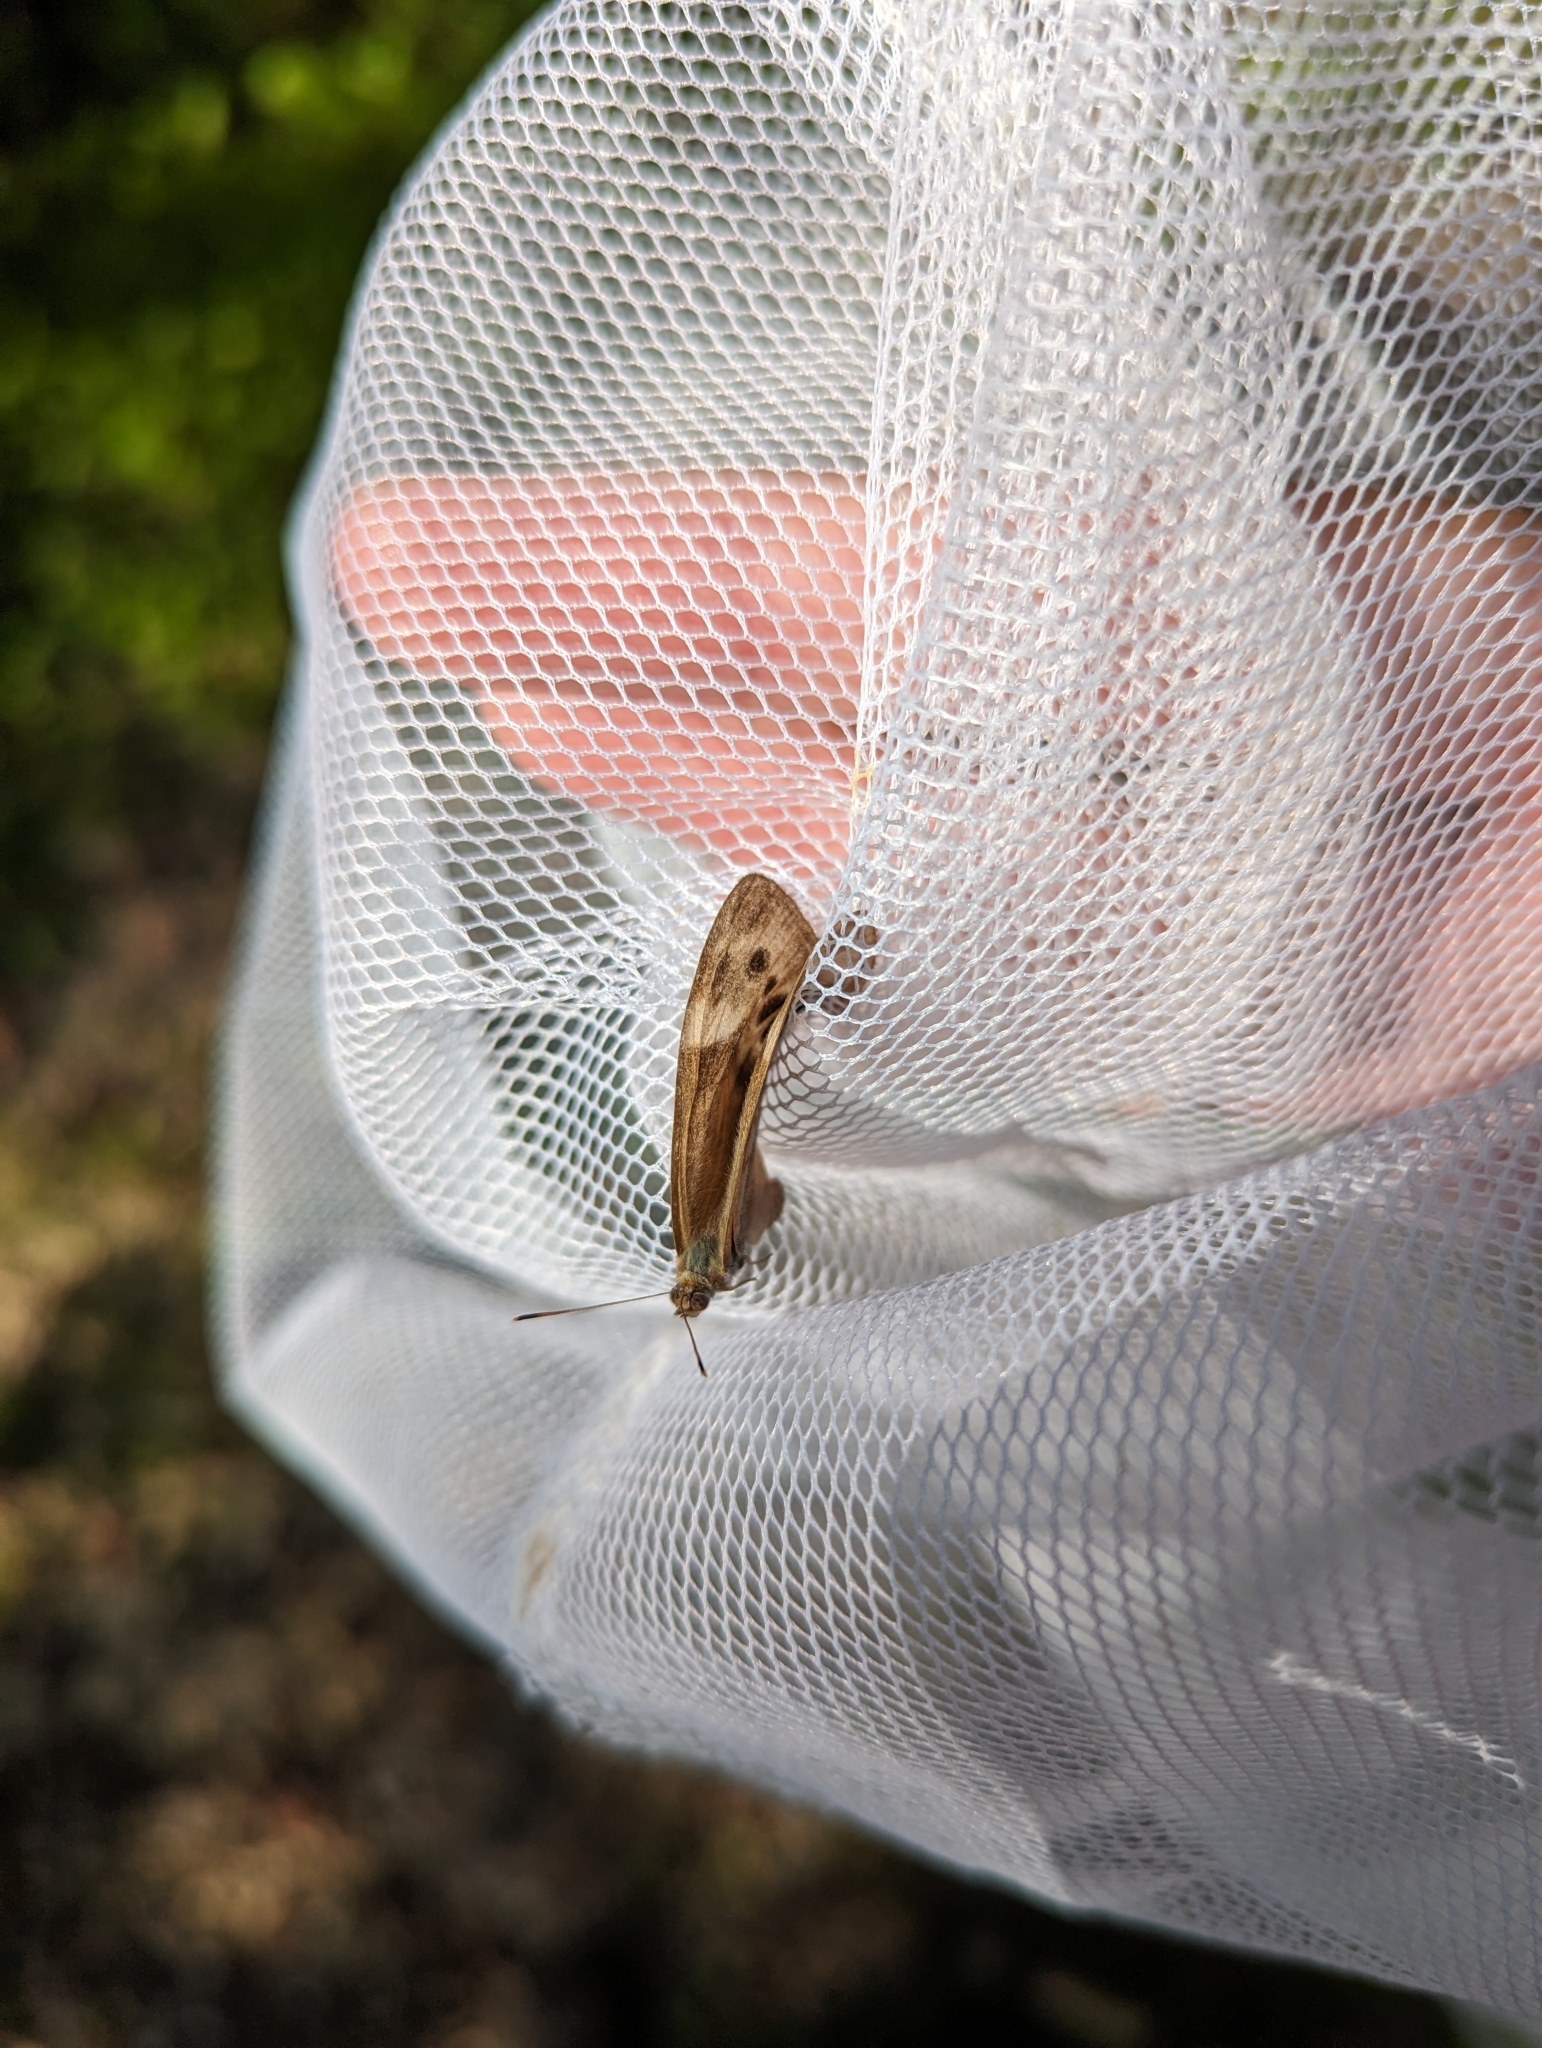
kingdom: Animalia
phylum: Arthropoda
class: Insecta
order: Lepidoptera
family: Nymphalidae
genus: Lethe
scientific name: Lethe anthedon
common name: Northern pearly-eye
